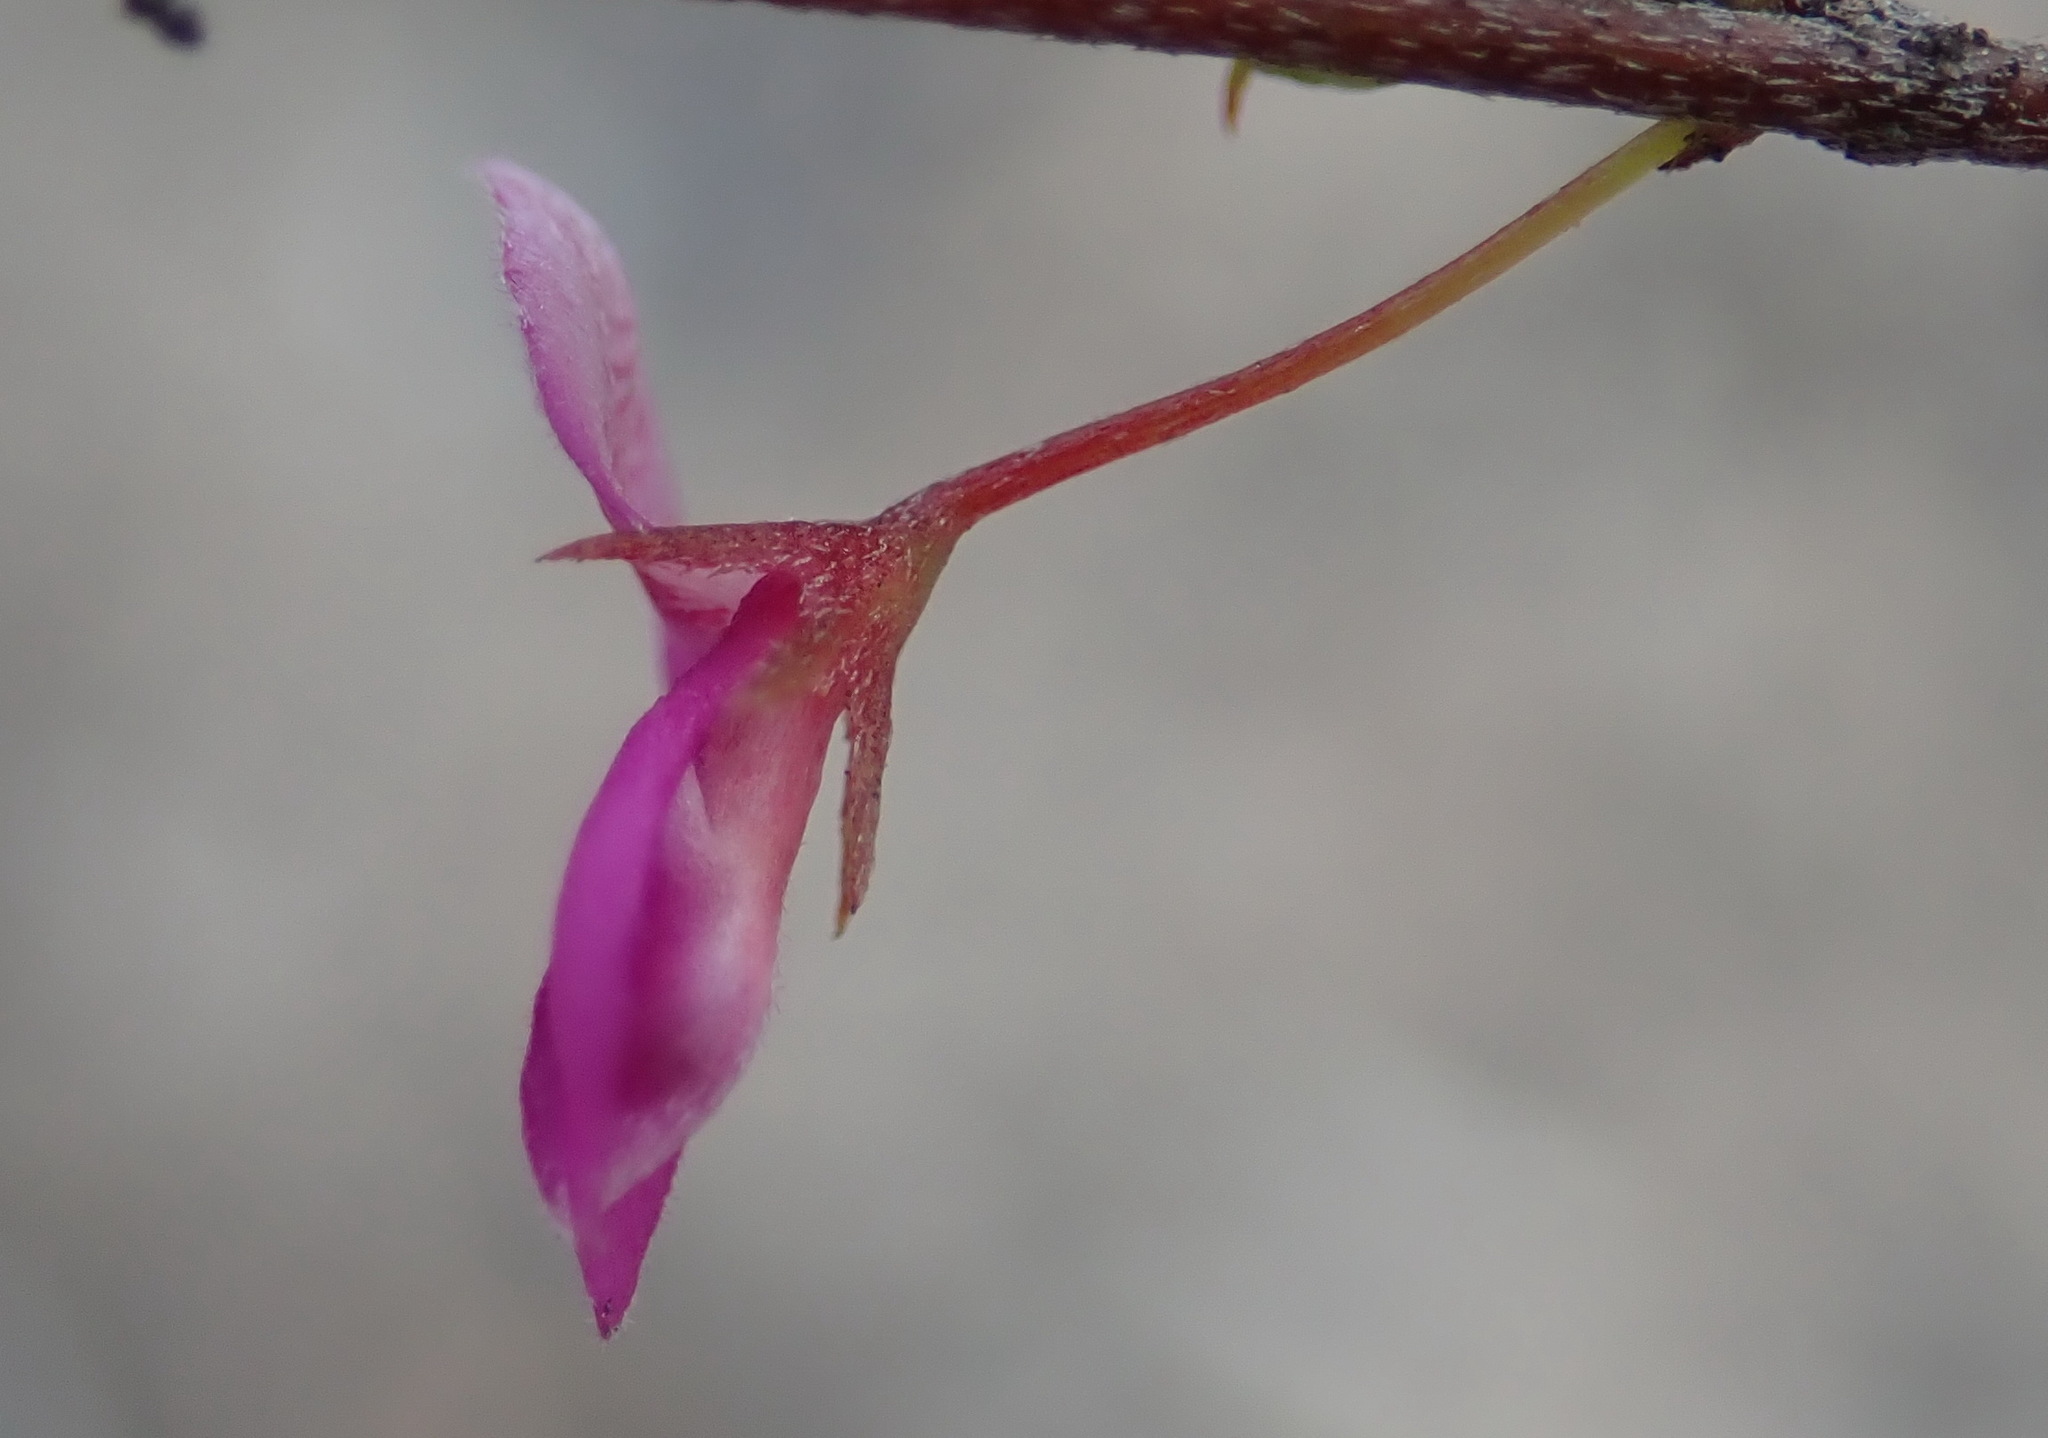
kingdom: Plantae
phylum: Tracheophyta
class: Magnoliopsida
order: Fabales
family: Fabaceae
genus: Indigofera
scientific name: Indigofera setosa
